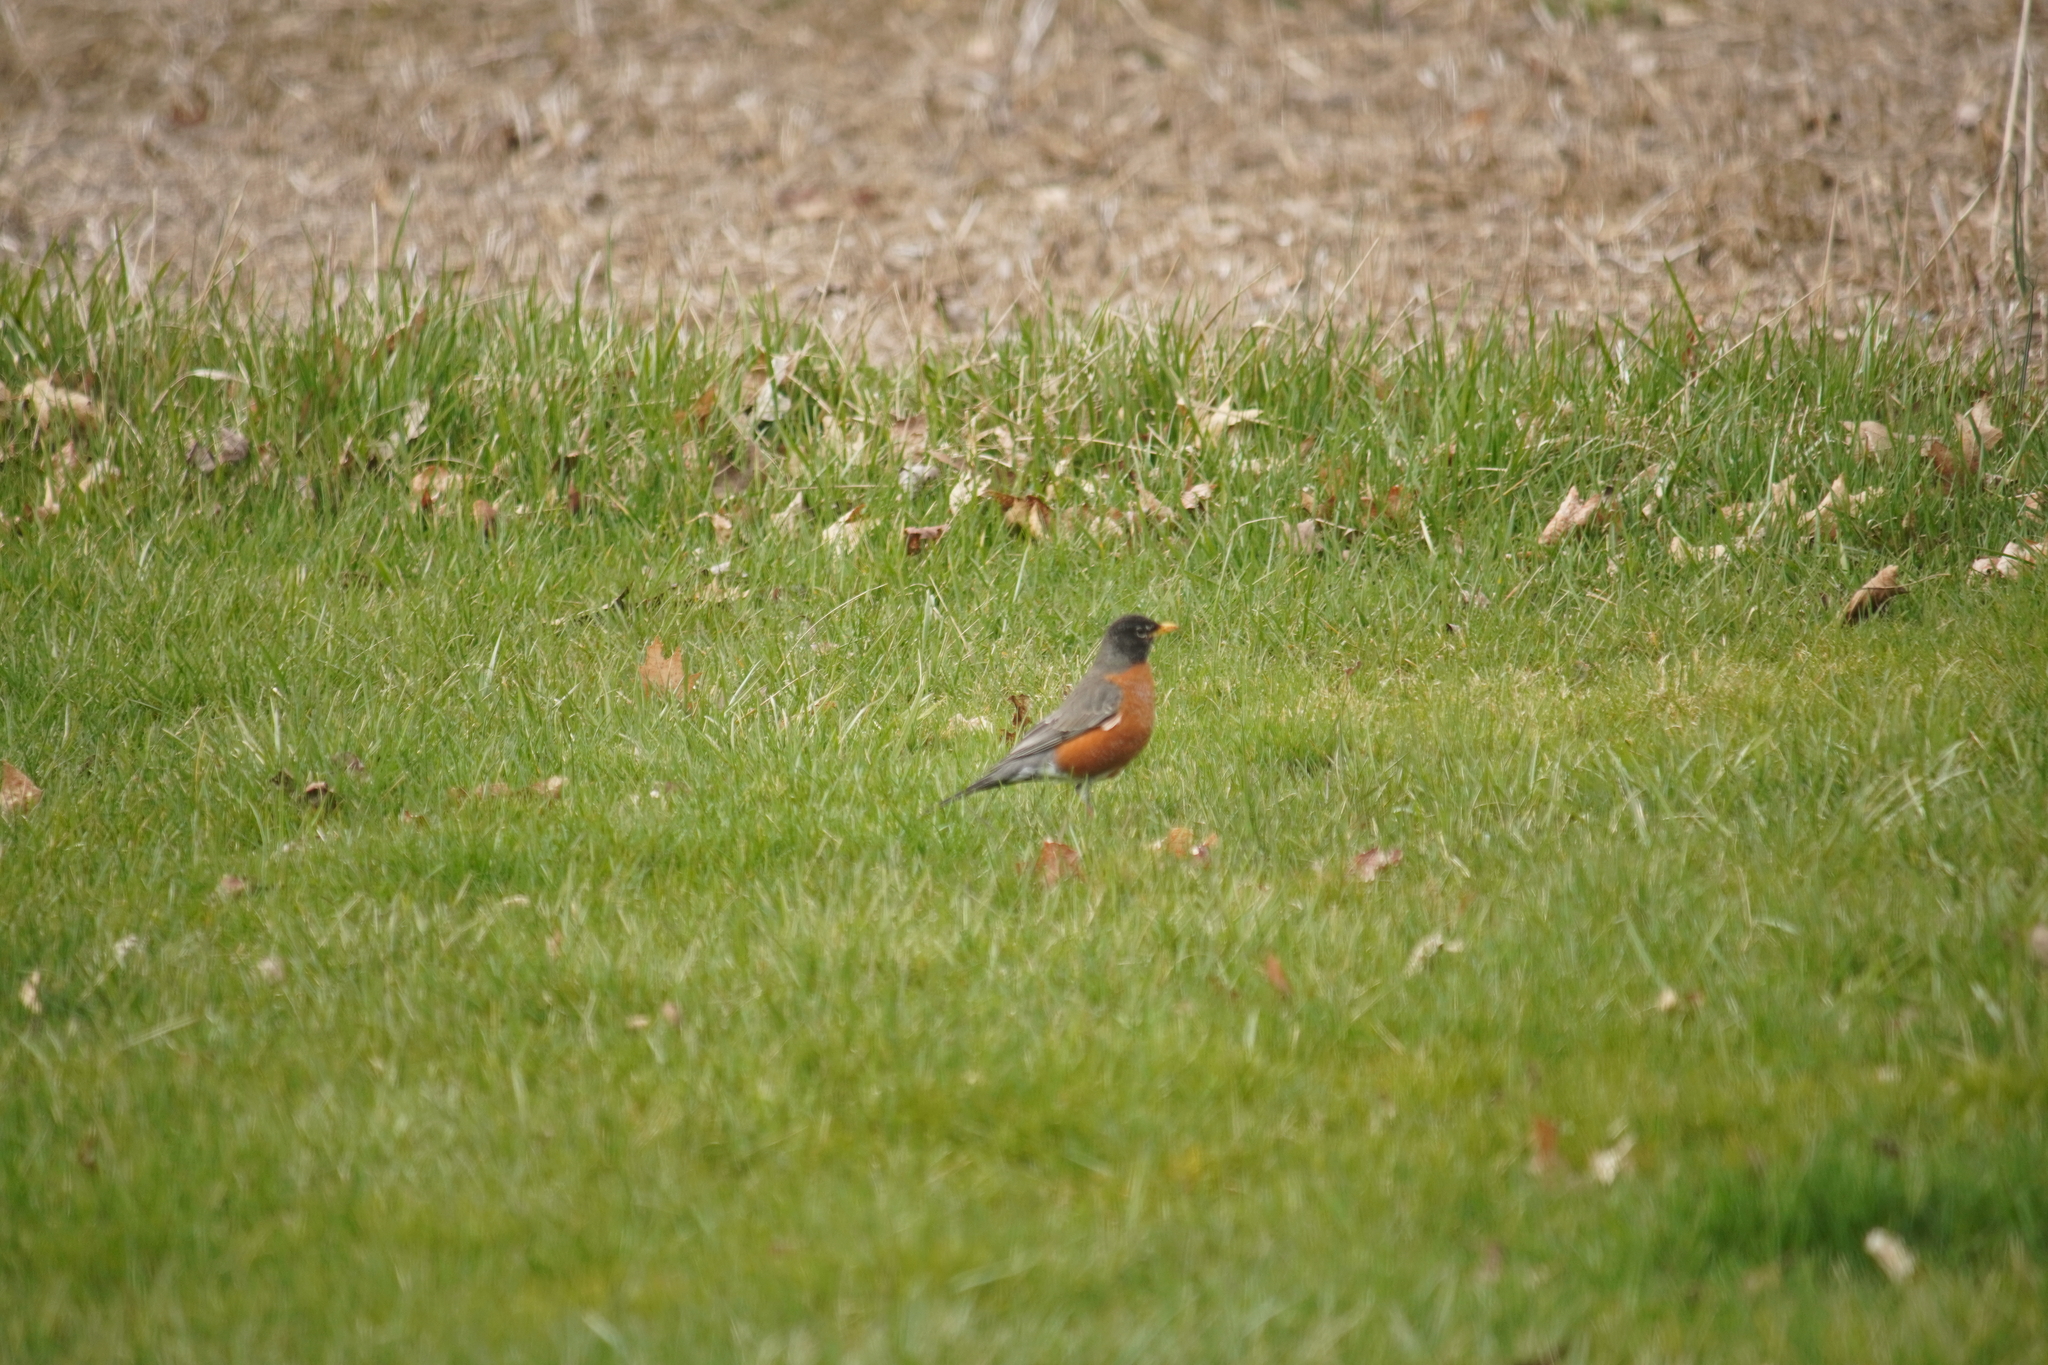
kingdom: Animalia
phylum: Chordata
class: Aves
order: Passeriformes
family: Turdidae
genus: Turdus
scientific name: Turdus migratorius
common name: American robin
